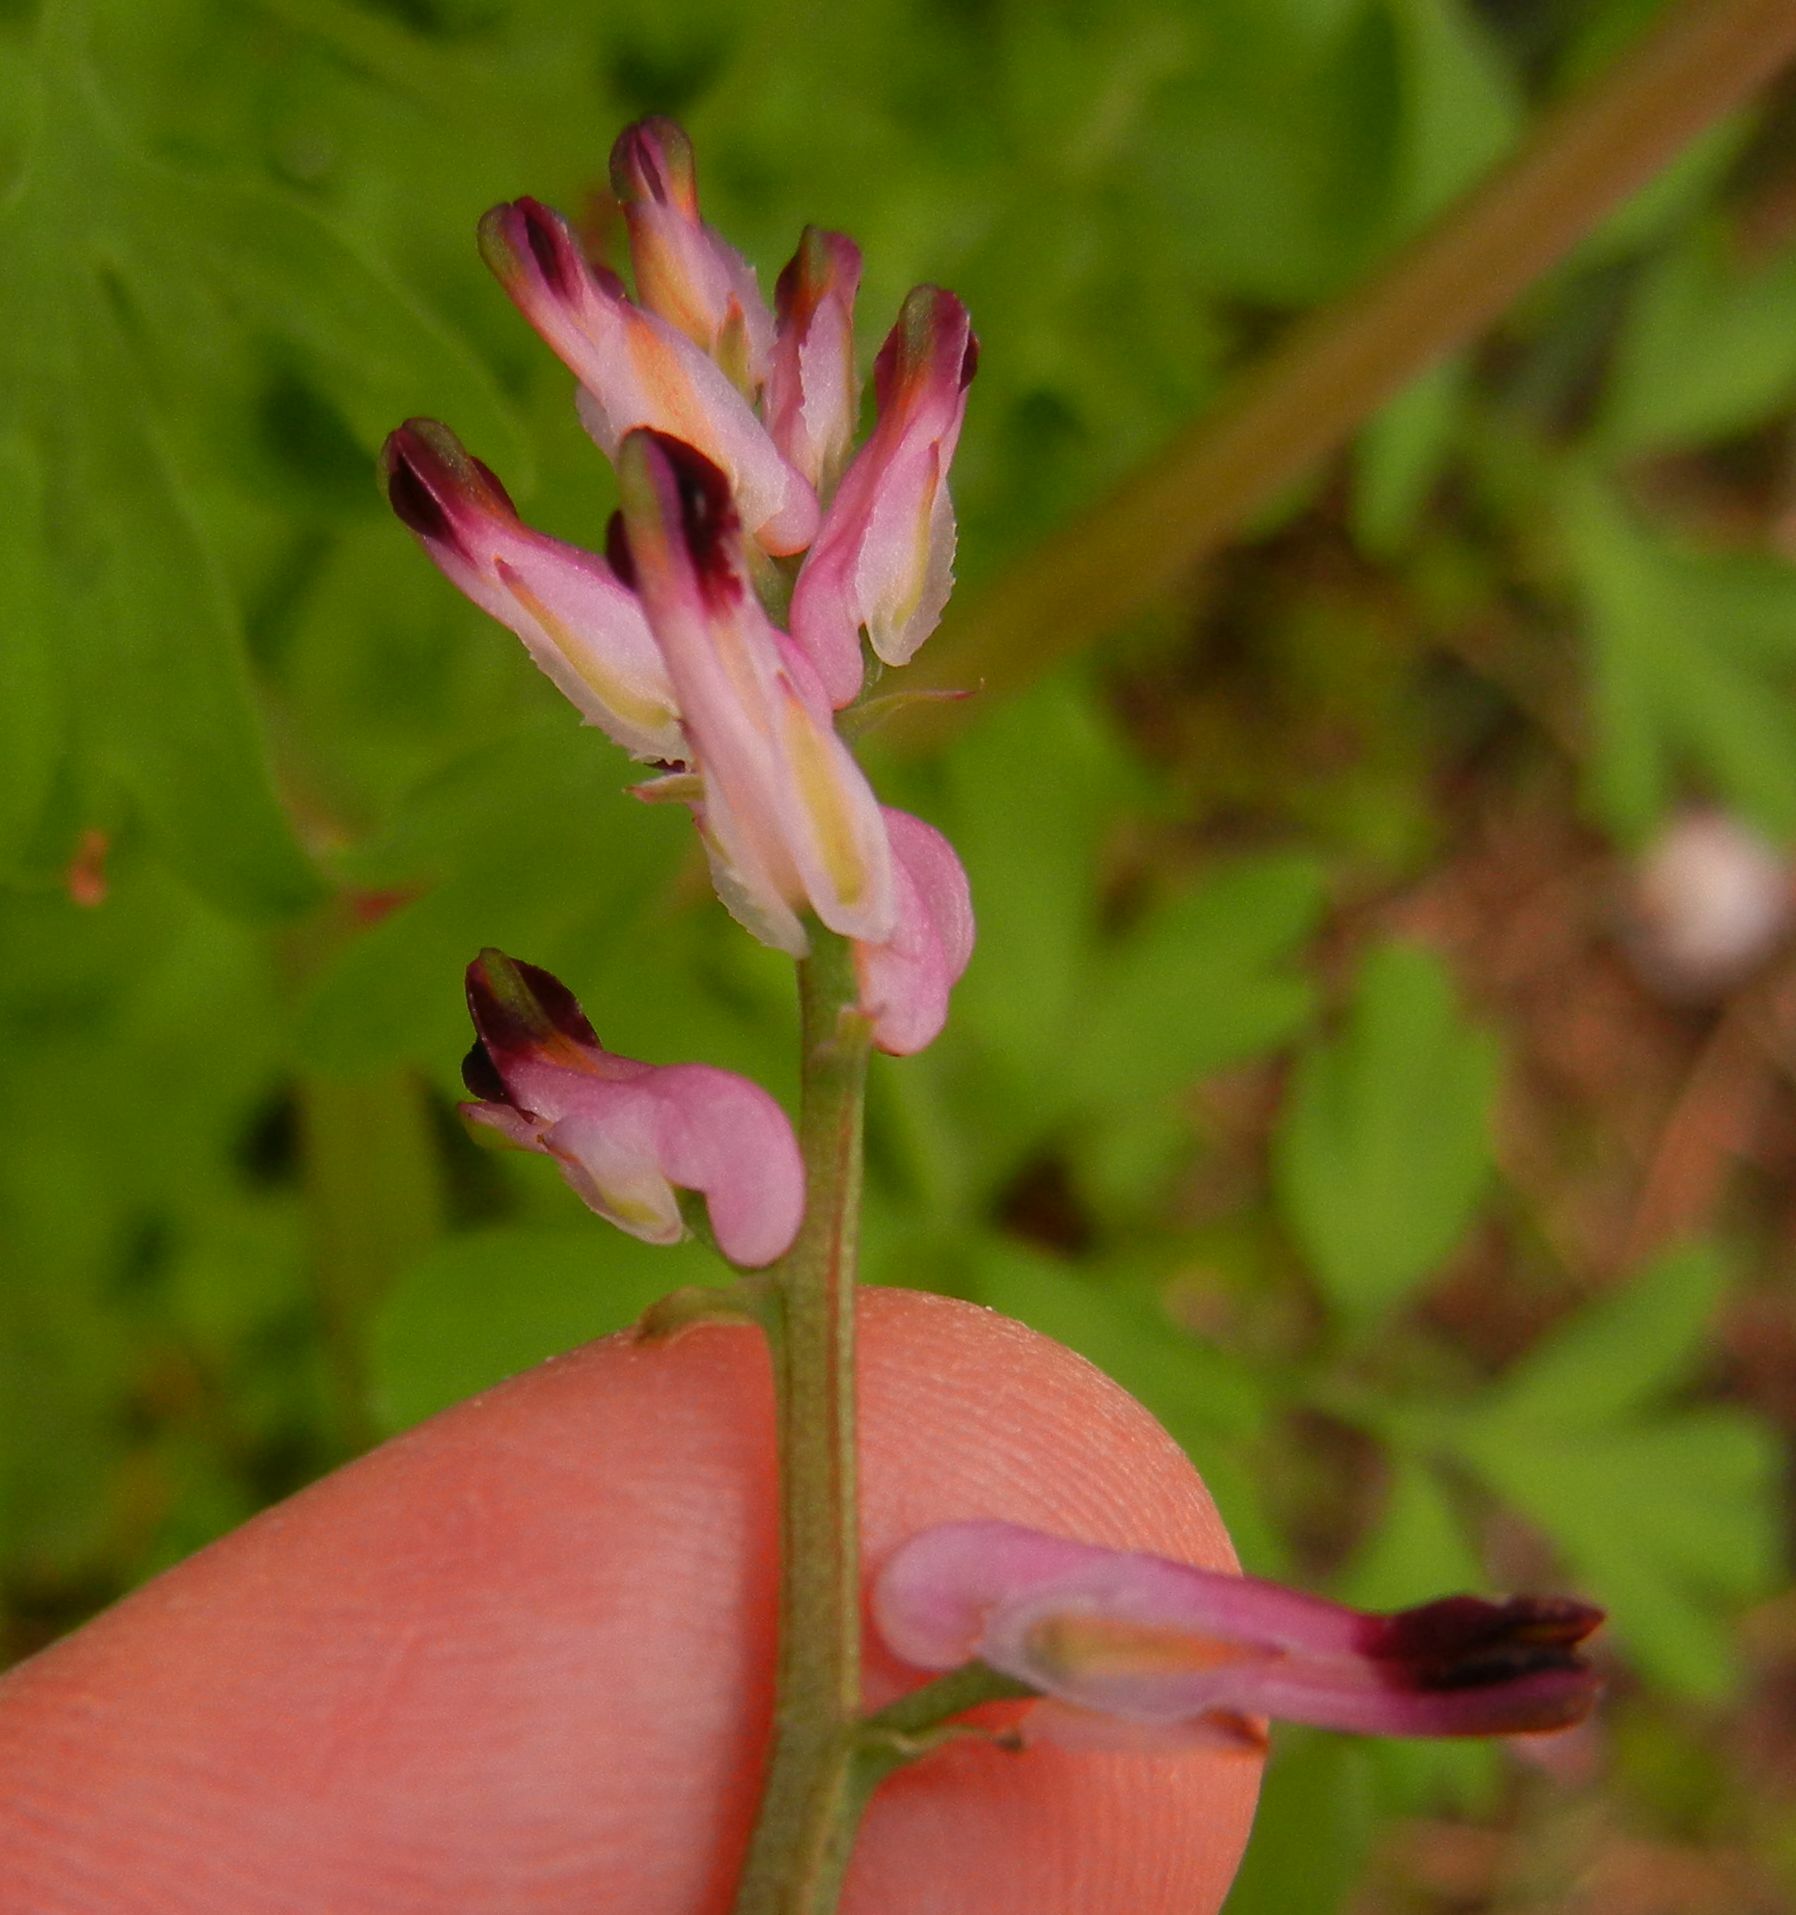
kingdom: Plantae
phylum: Tracheophyta
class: Magnoliopsida
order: Ranunculales
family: Papaveraceae
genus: Fumaria
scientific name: Fumaria purpurea
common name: Purple ramping-fumitory
